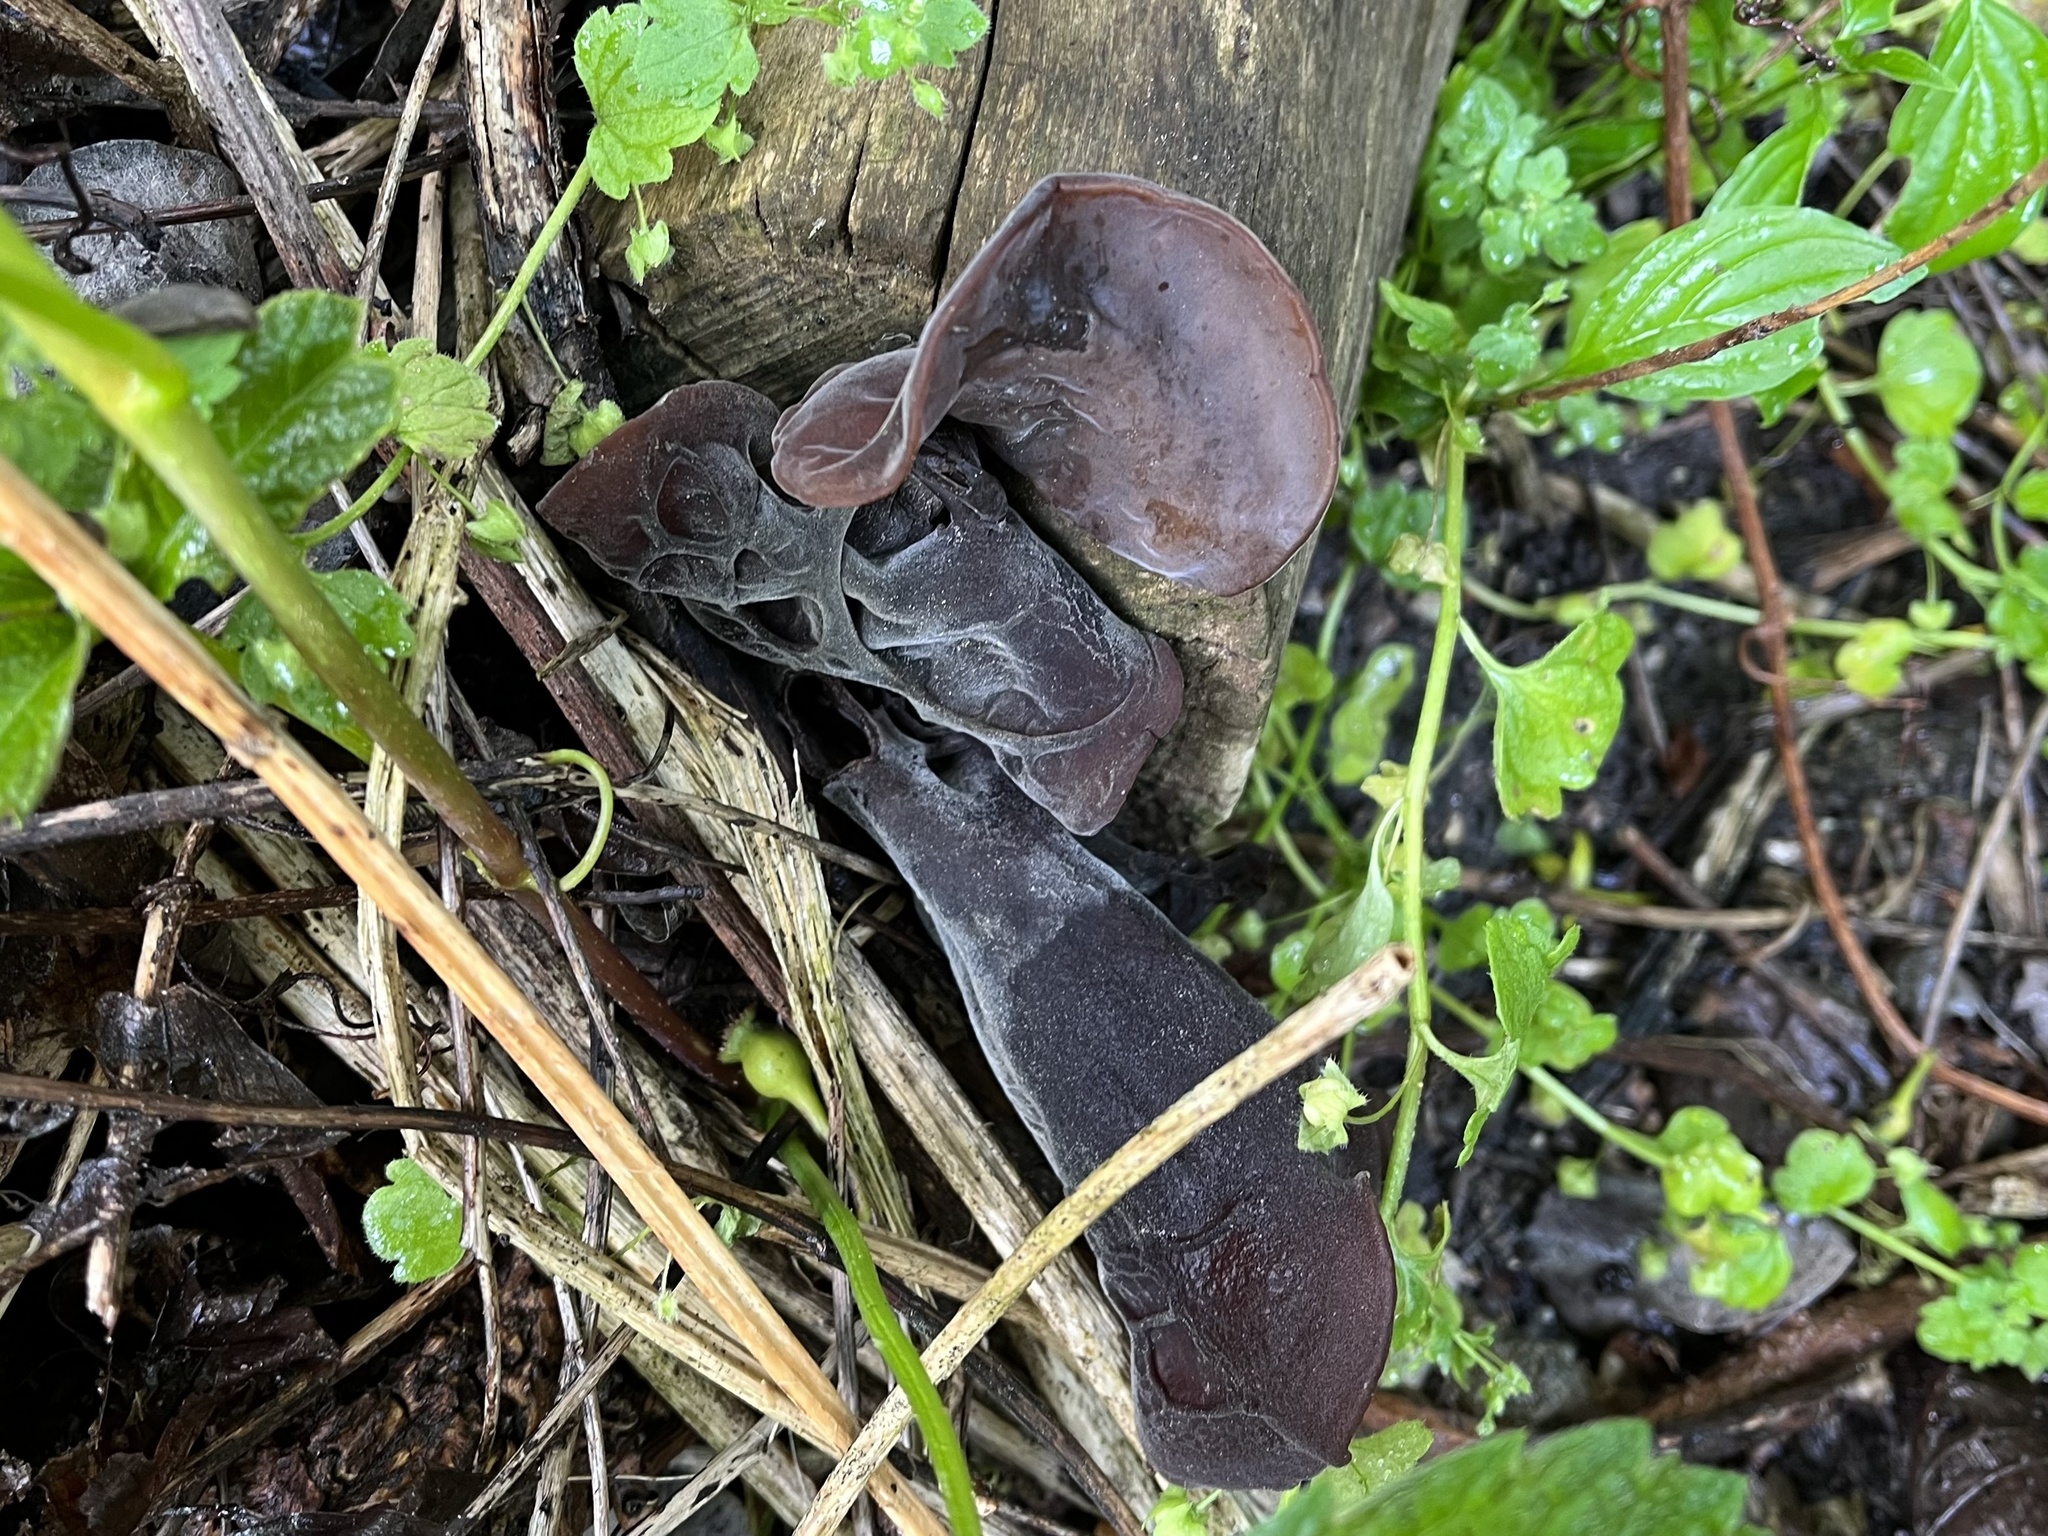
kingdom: Fungi
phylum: Basidiomycota
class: Agaricomycetes
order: Auriculariales
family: Auriculariaceae
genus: Auricularia
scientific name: Auricularia auricula-judae
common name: Jelly ear
